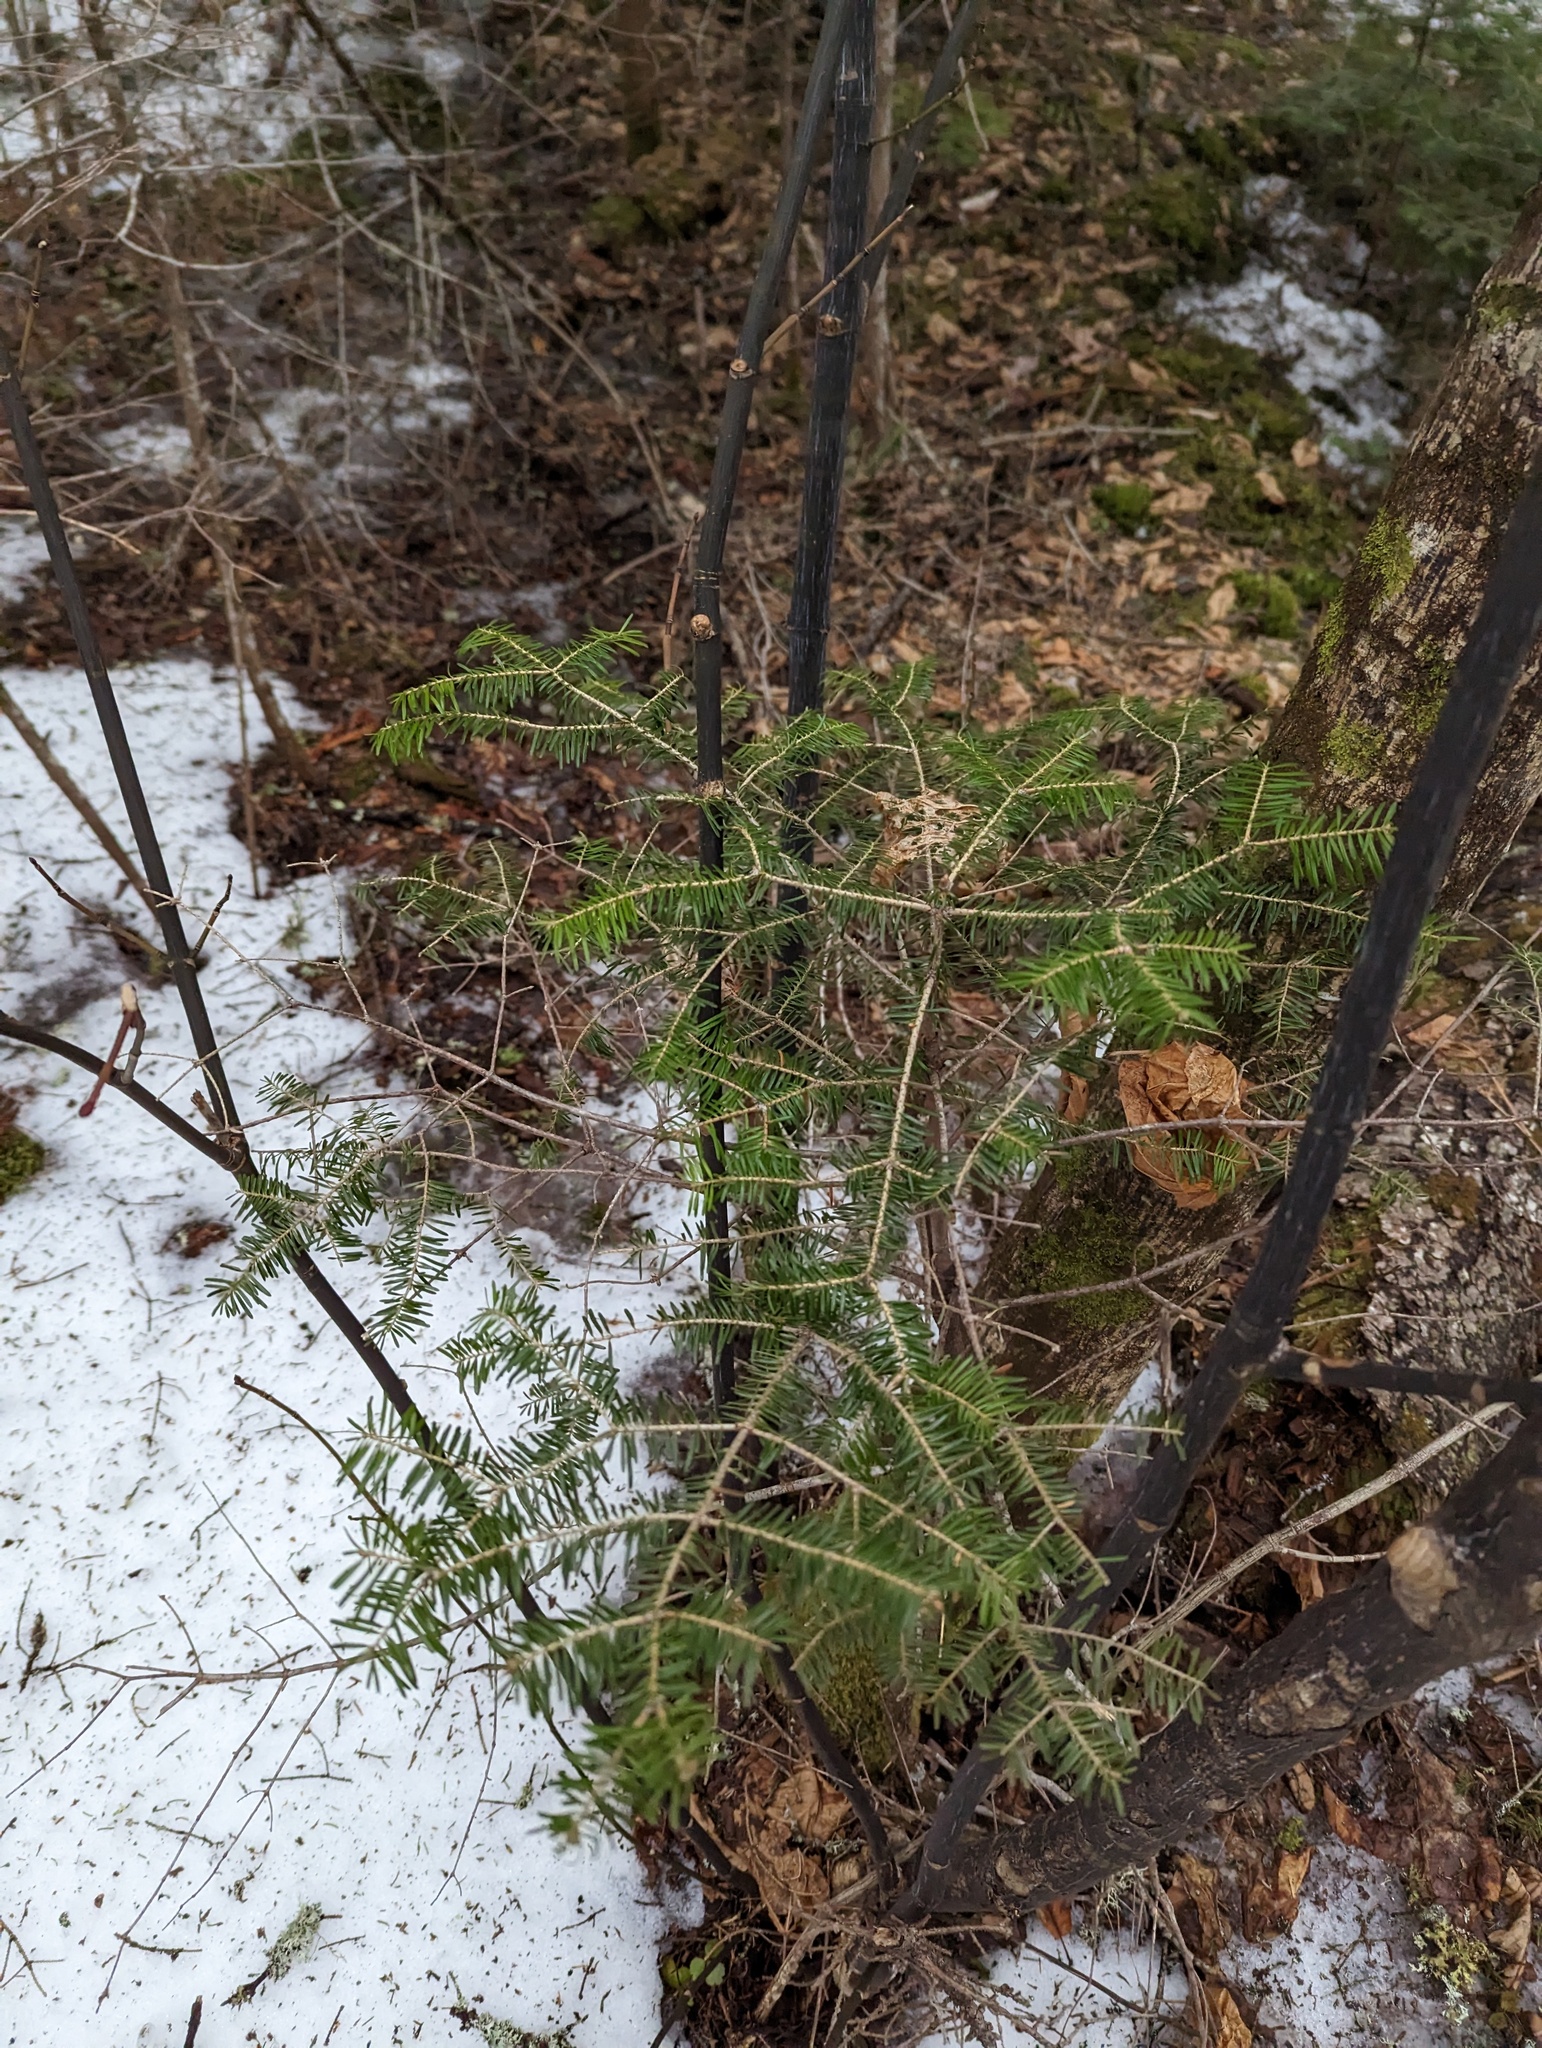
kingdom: Plantae
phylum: Tracheophyta
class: Pinopsida
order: Pinales
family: Pinaceae
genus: Abies
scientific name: Abies balsamea
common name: Balsam fir
